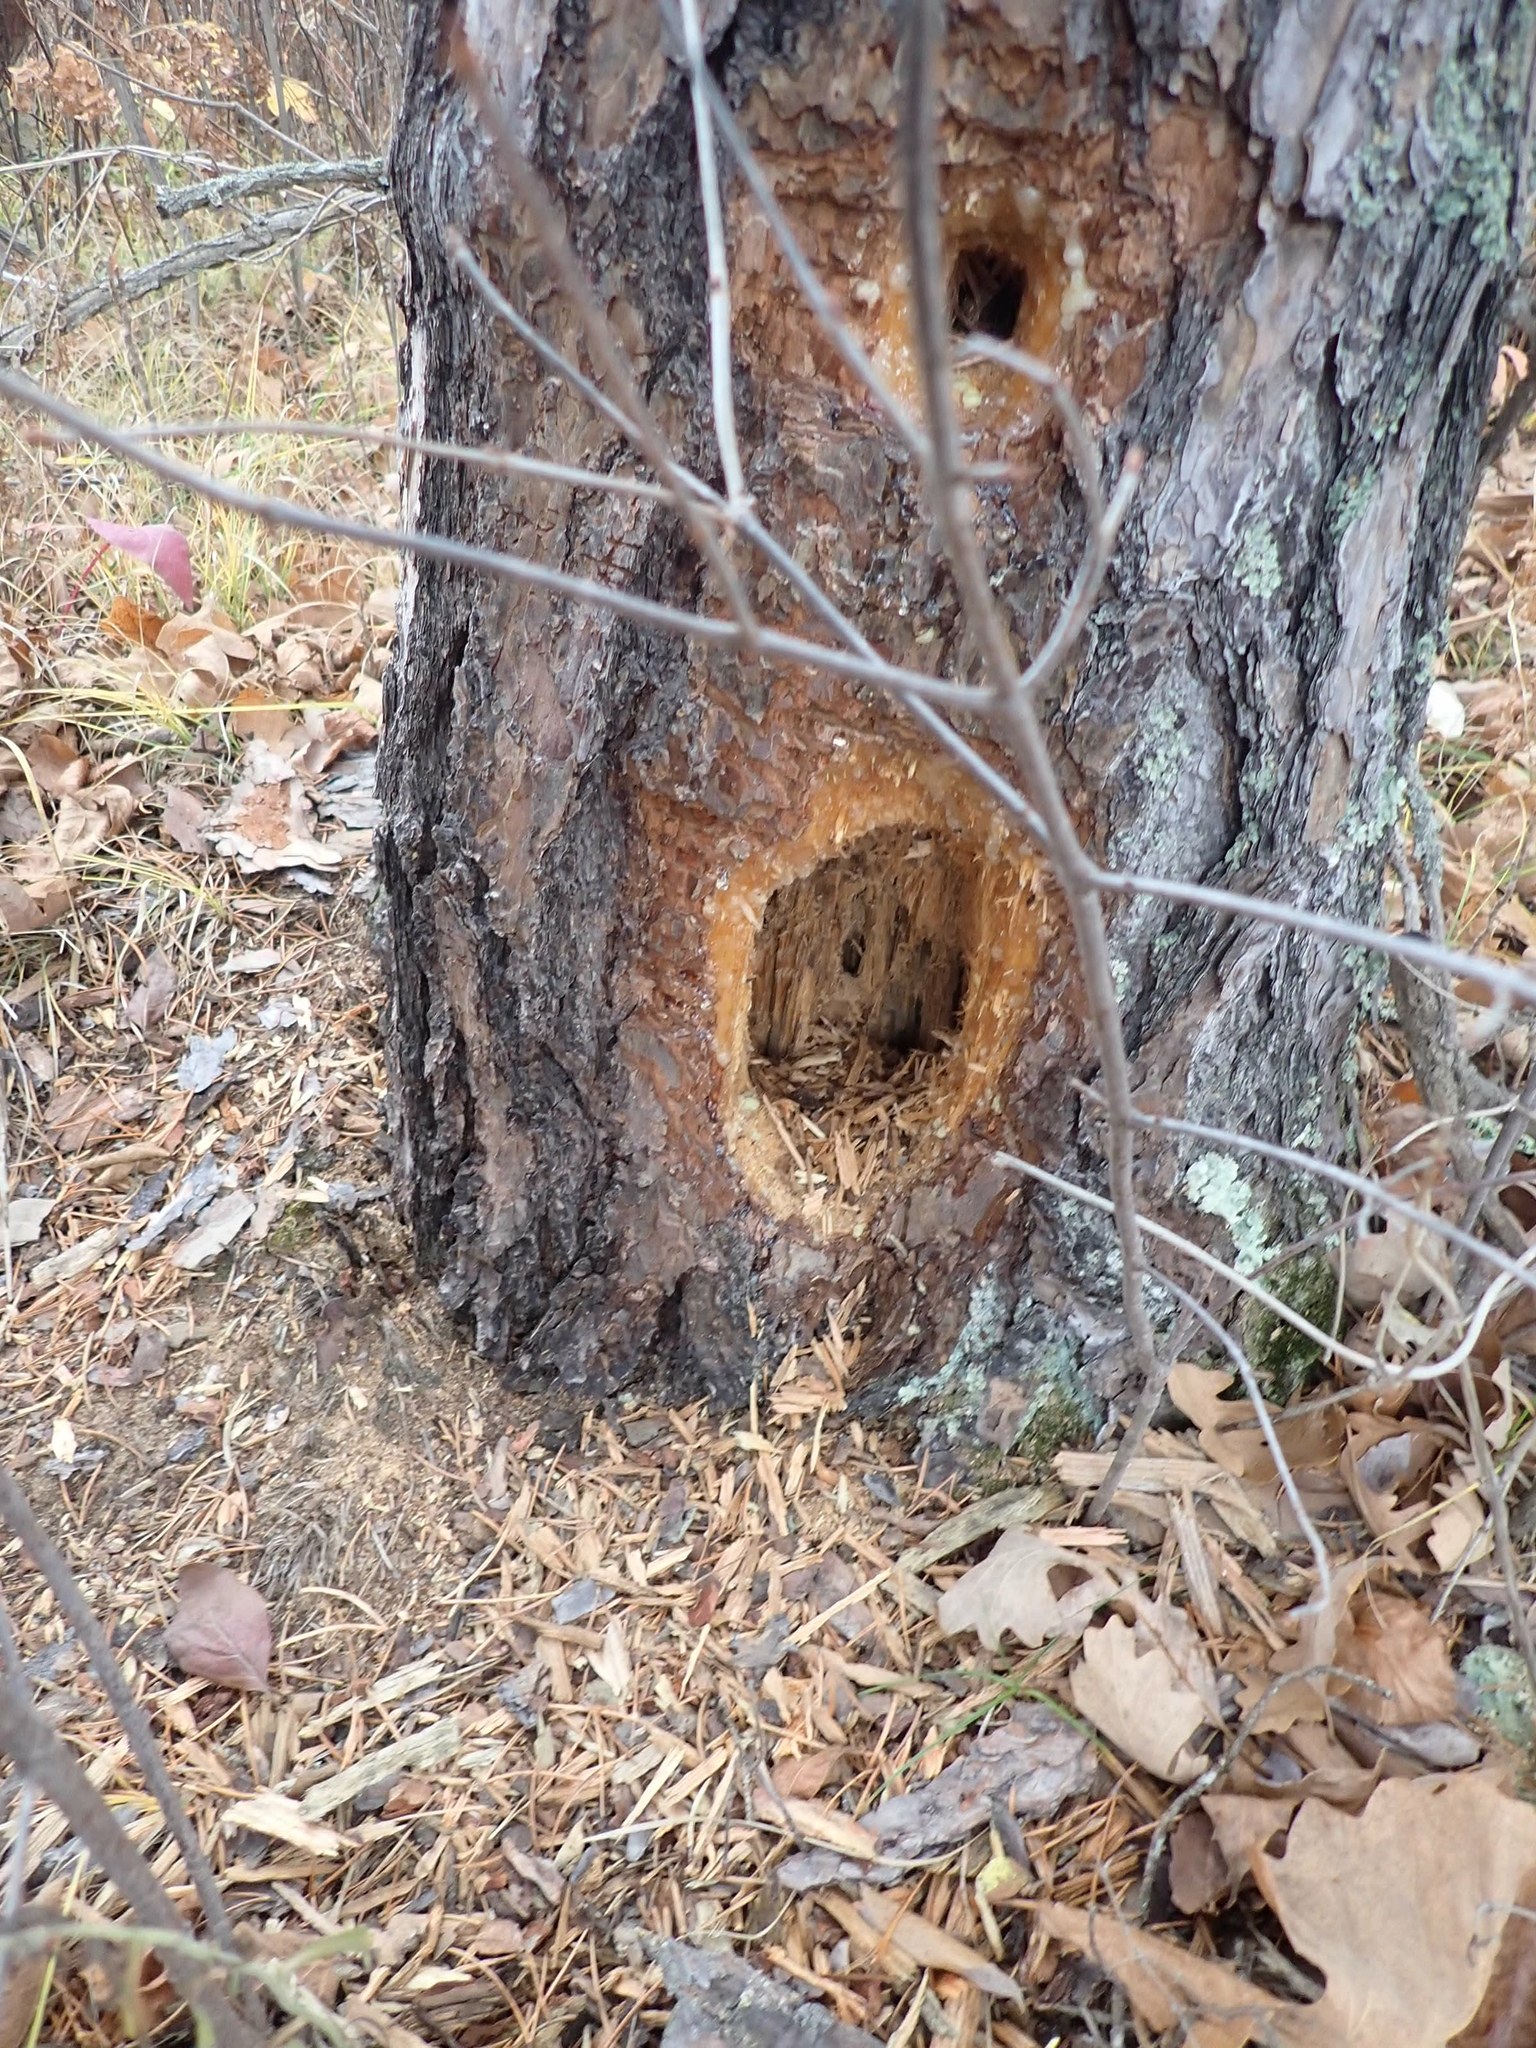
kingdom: Animalia
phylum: Chordata
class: Aves
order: Piciformes
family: Picidae
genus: Dryocopus
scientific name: Dryocopus pileatus
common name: Pileated woodpecker
